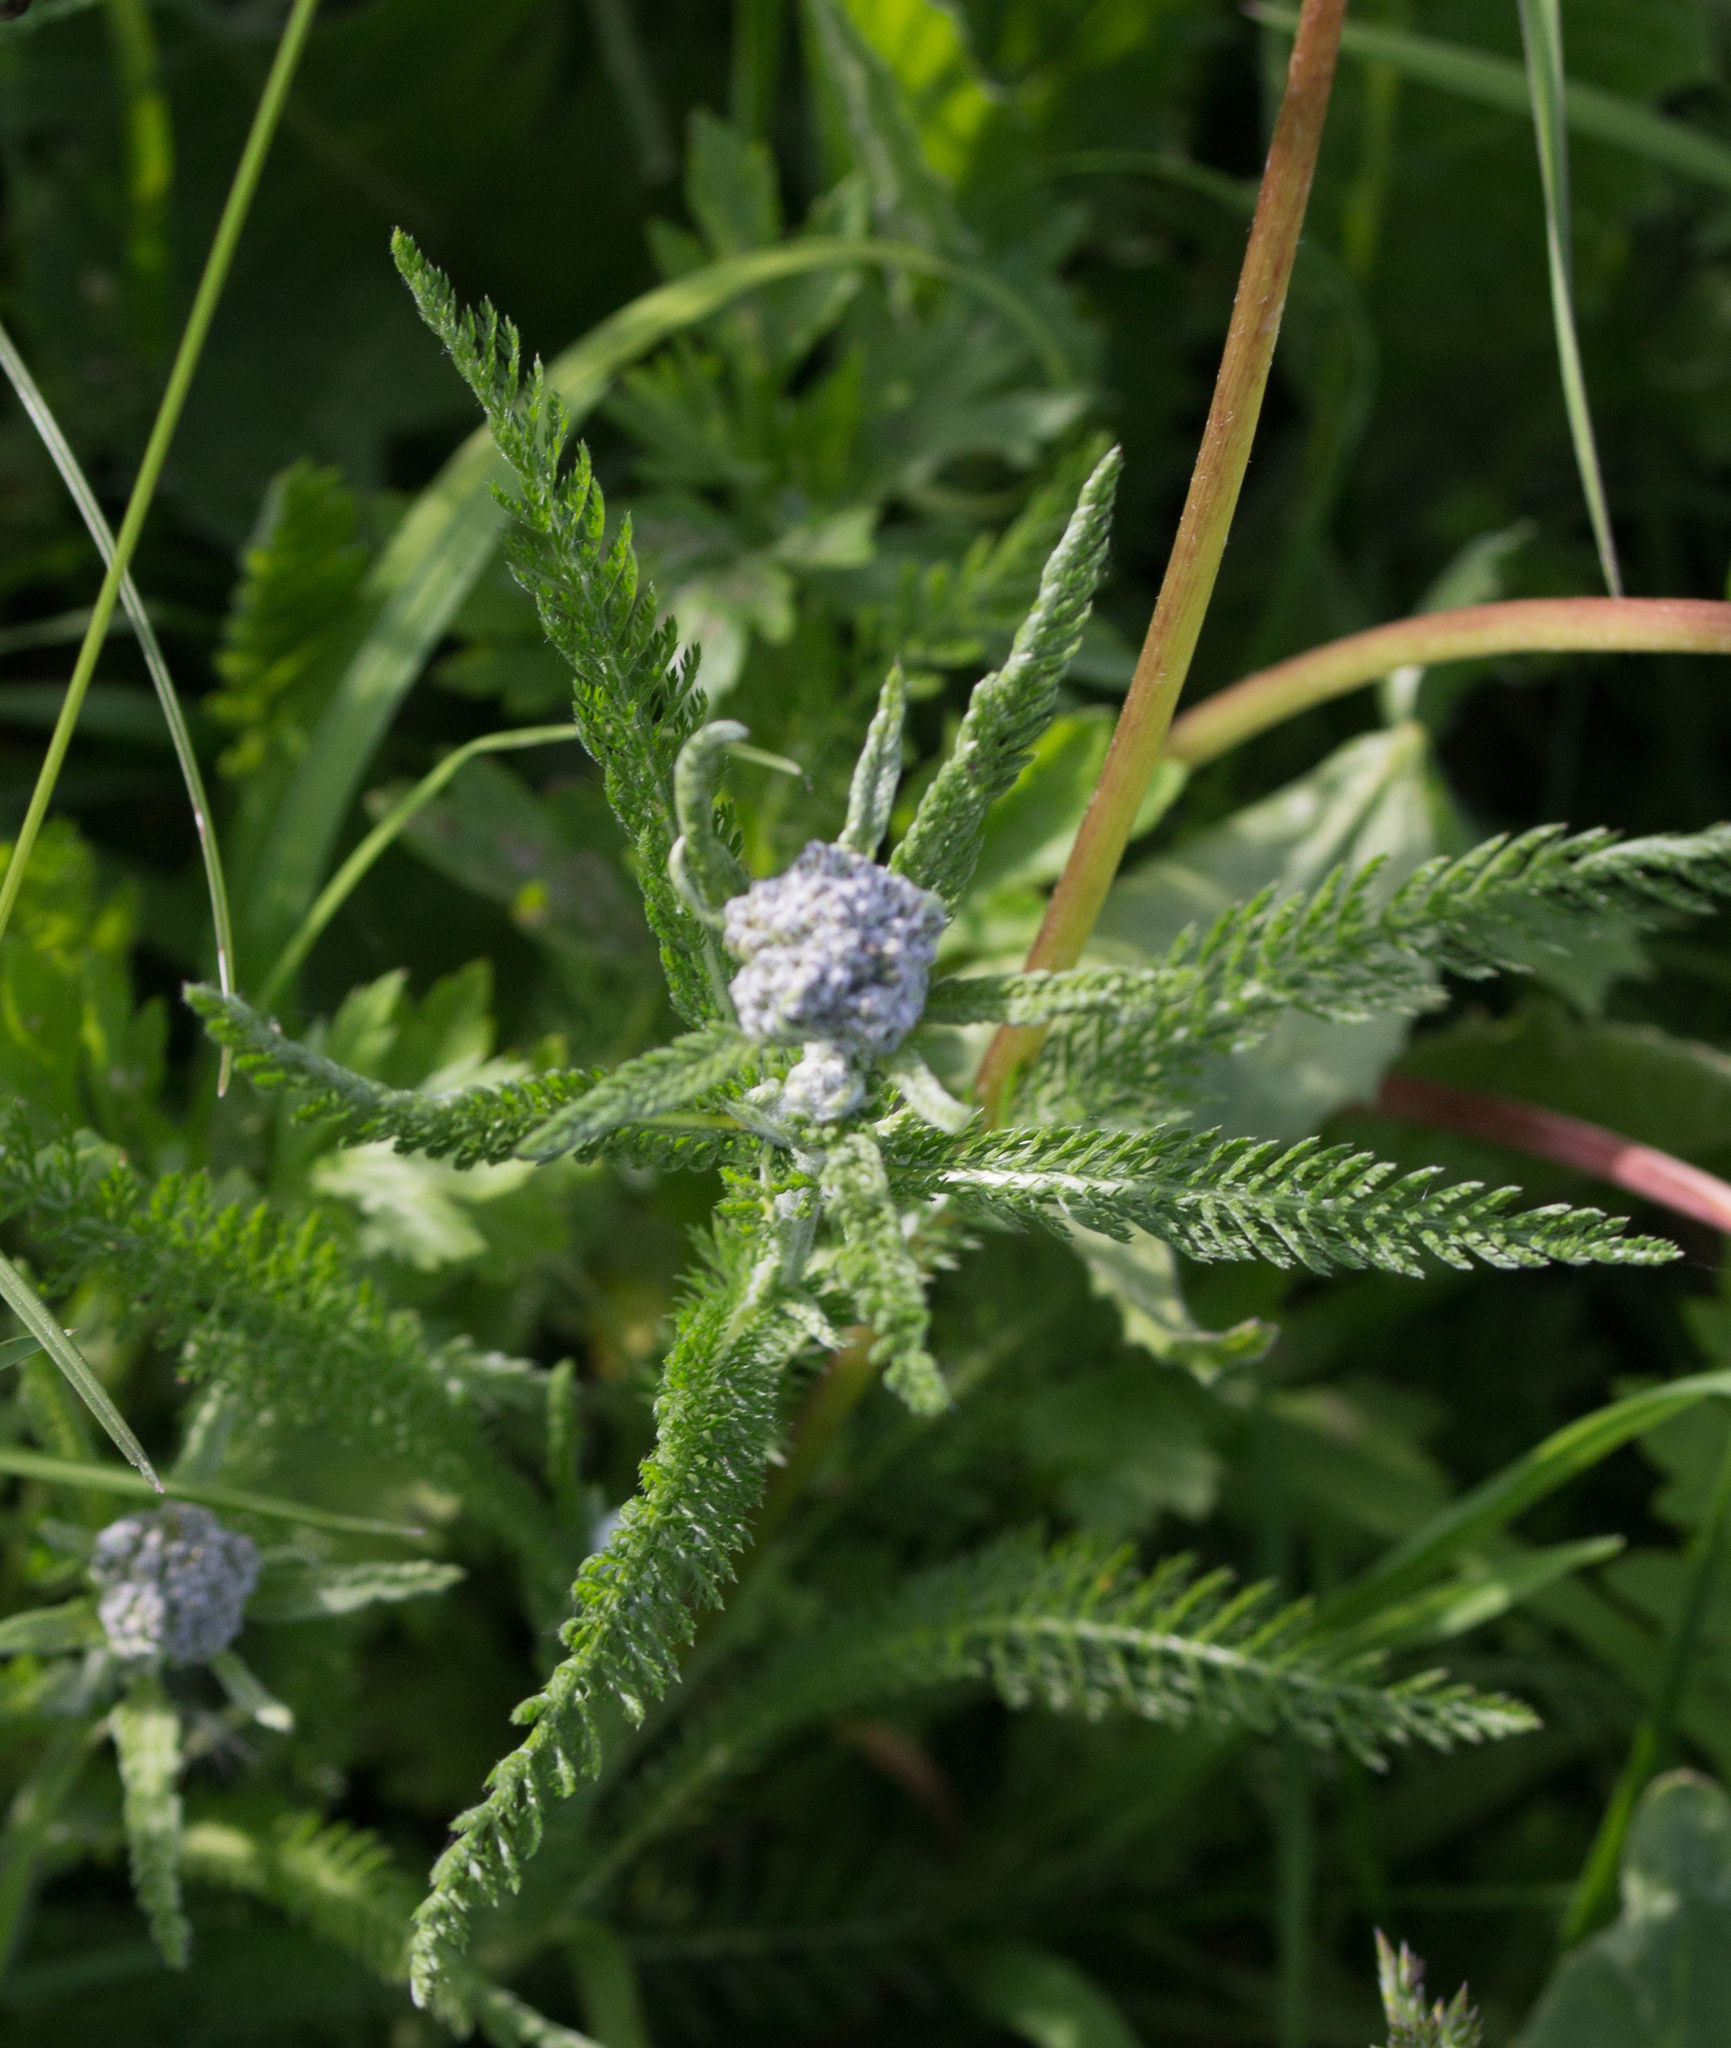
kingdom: Plantae
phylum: Tracheophyta
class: Magnoliopsida
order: Asterales
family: Asteraceae
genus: Achillea
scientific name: Achillea millefolium
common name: Yarrow
